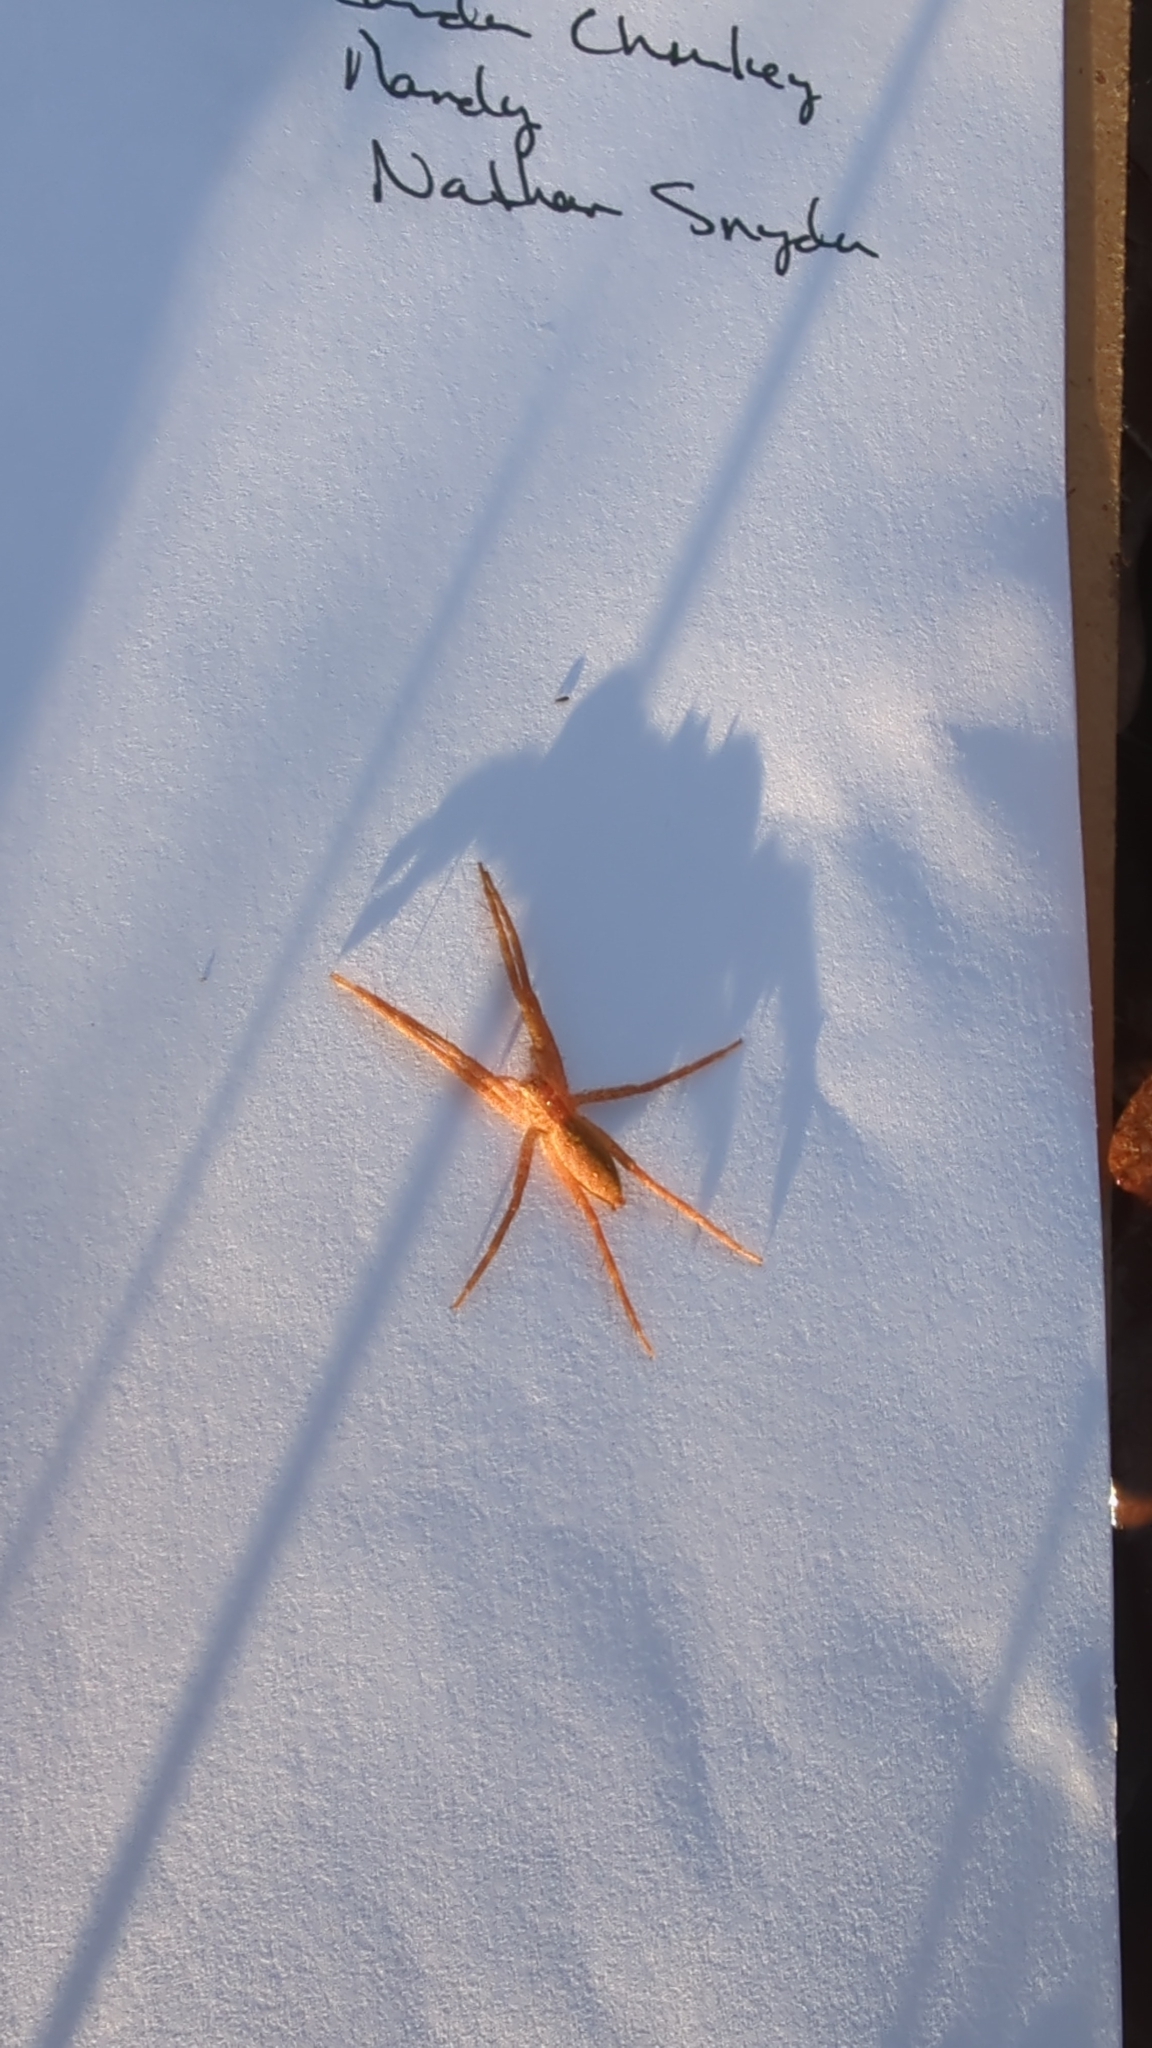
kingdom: Animalia
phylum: Arthropoda
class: Arachnida
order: Araneae
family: Pisauridae
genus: Pisaurina
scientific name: Pisaurina mira
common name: American nursery web spider
